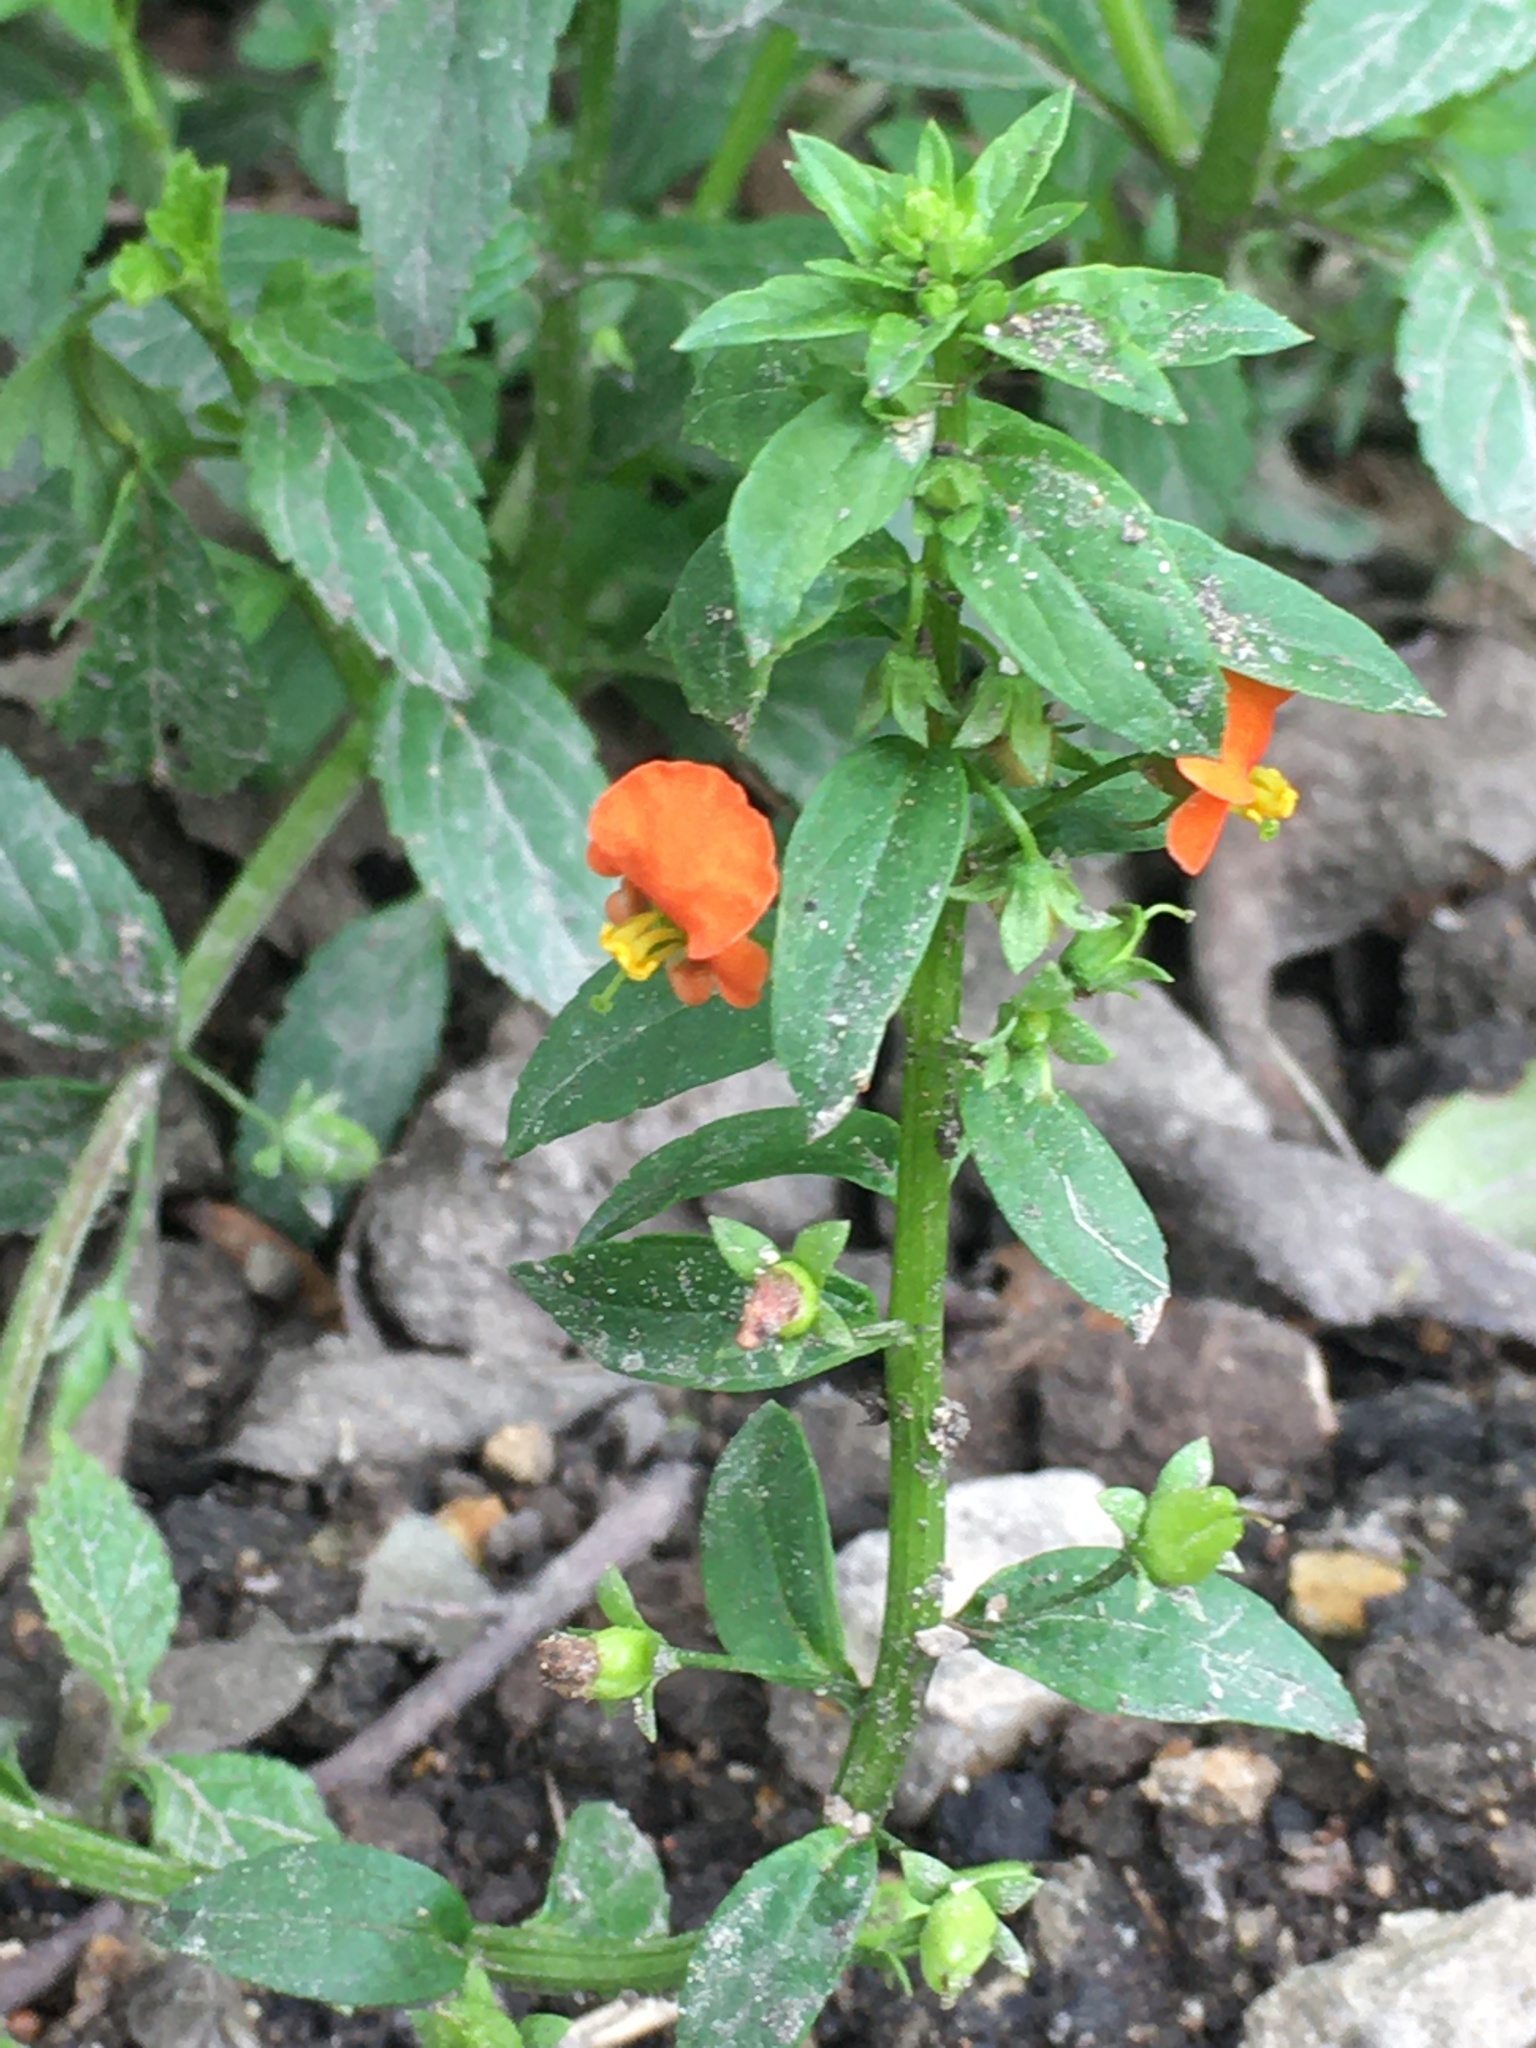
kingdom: Plantae
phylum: Tracheophyta
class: Magnoliopsida
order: Lamiales
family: Scrophulariaceae
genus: Alonsoa
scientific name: Alonsoa meridionalis
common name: Maskflower
